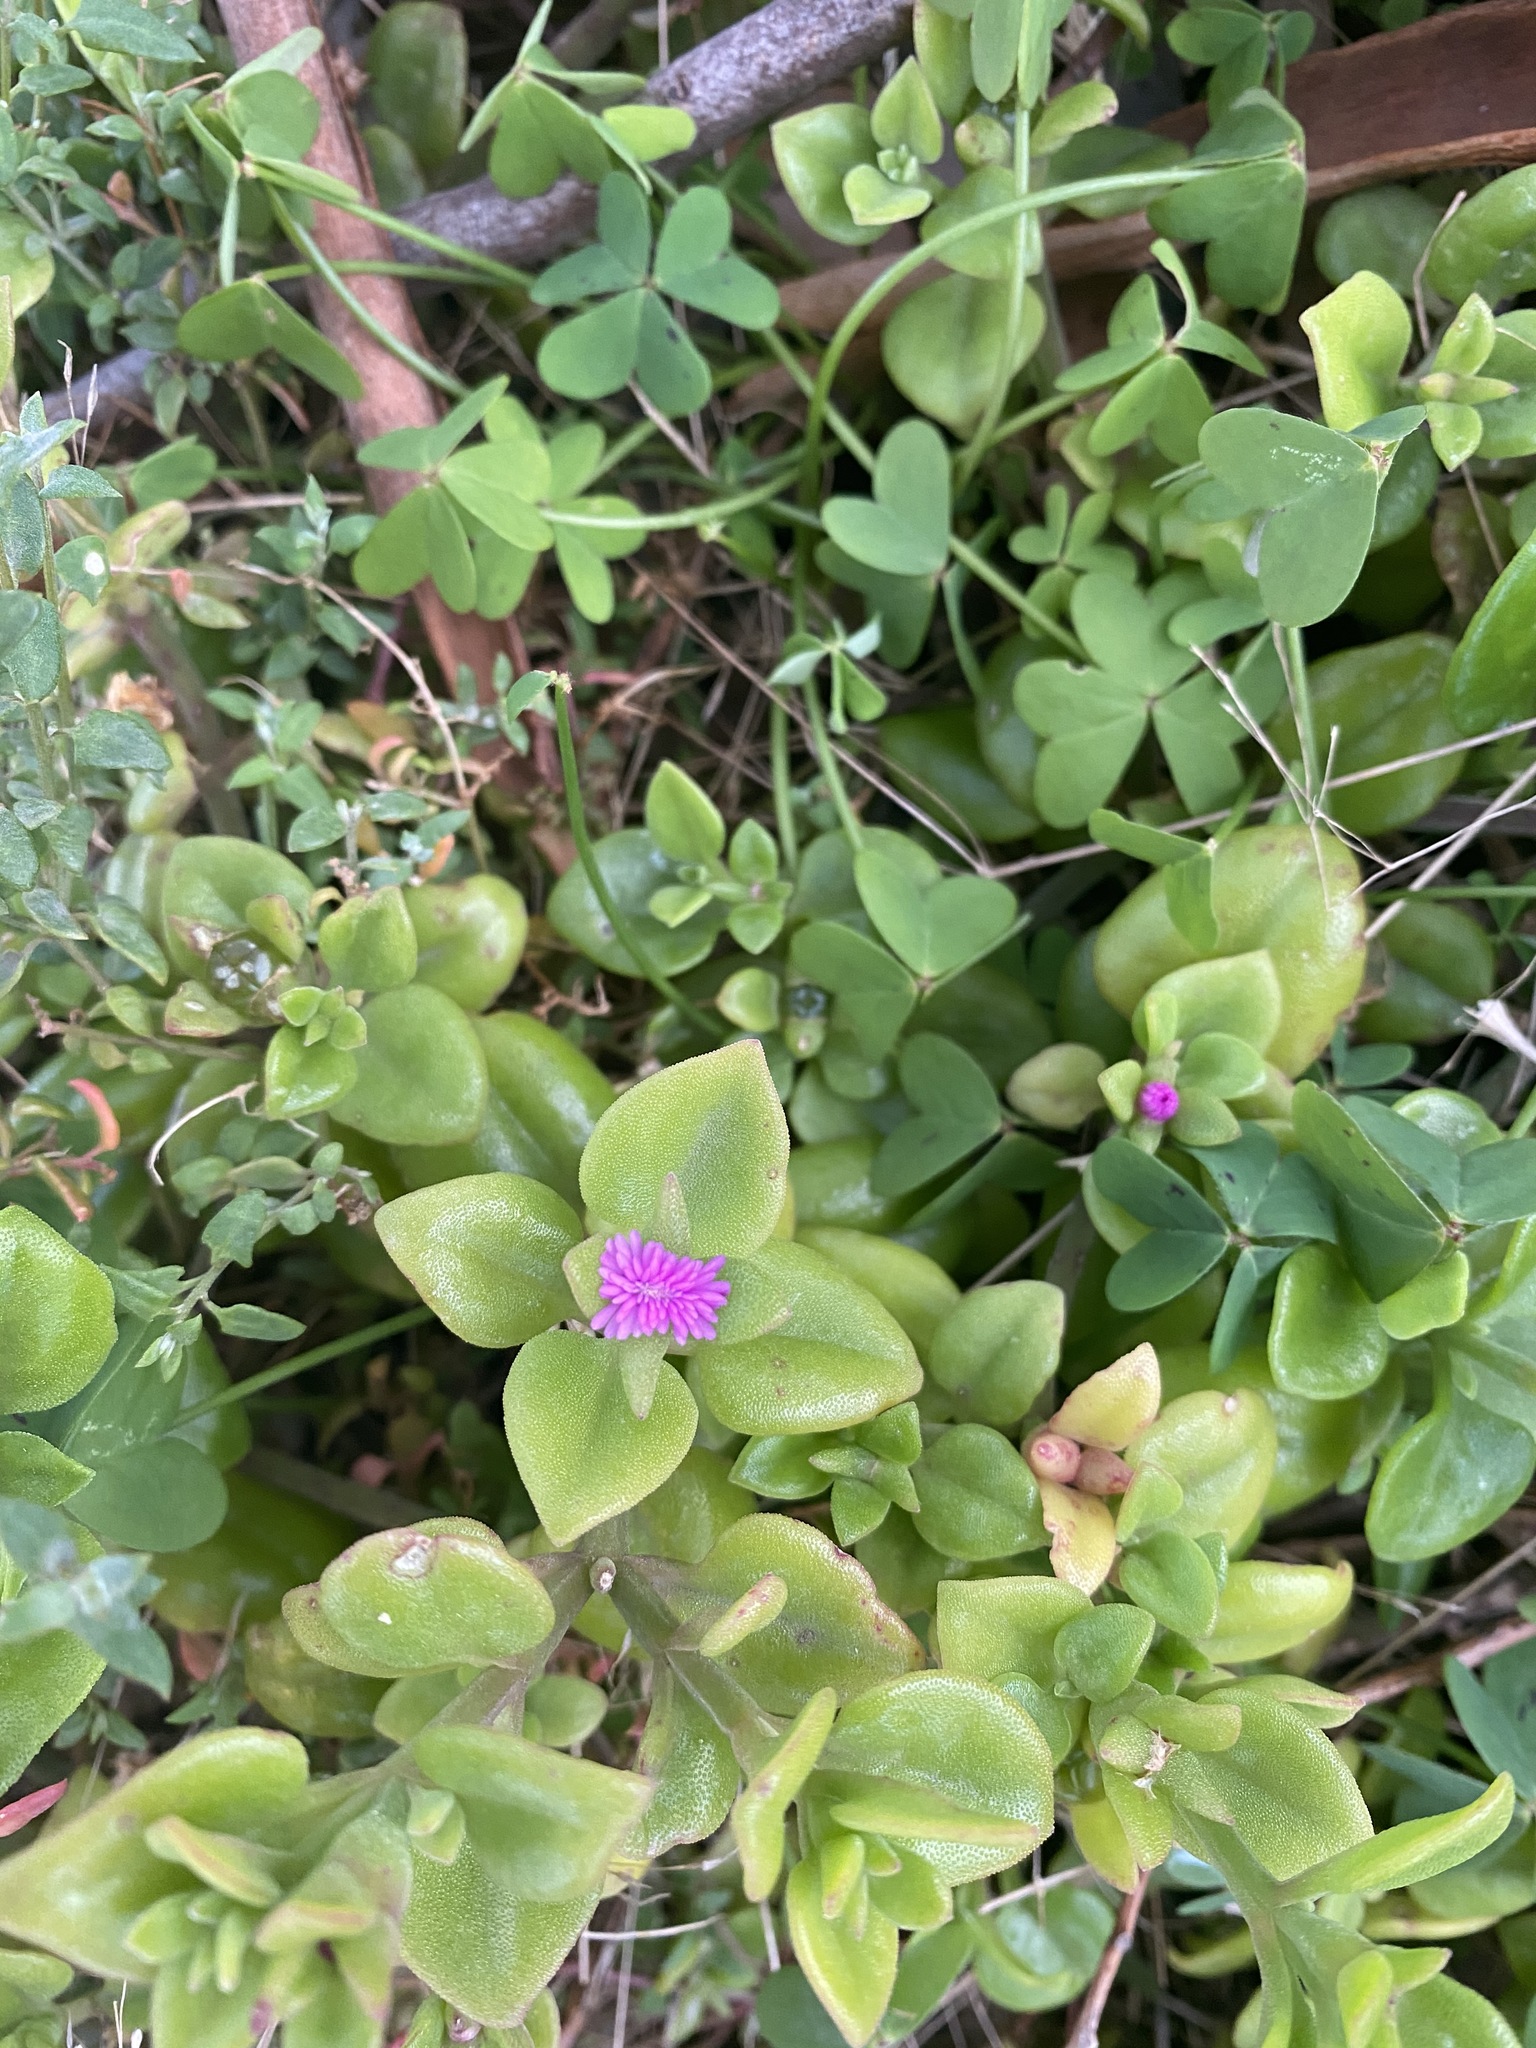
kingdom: Plantae
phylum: Tracheophyta
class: Magnoliopsida
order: Caryophyllales
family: Aizoaceae
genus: Mesembryanthemum
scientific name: Mesembryanthemum cordifolium
